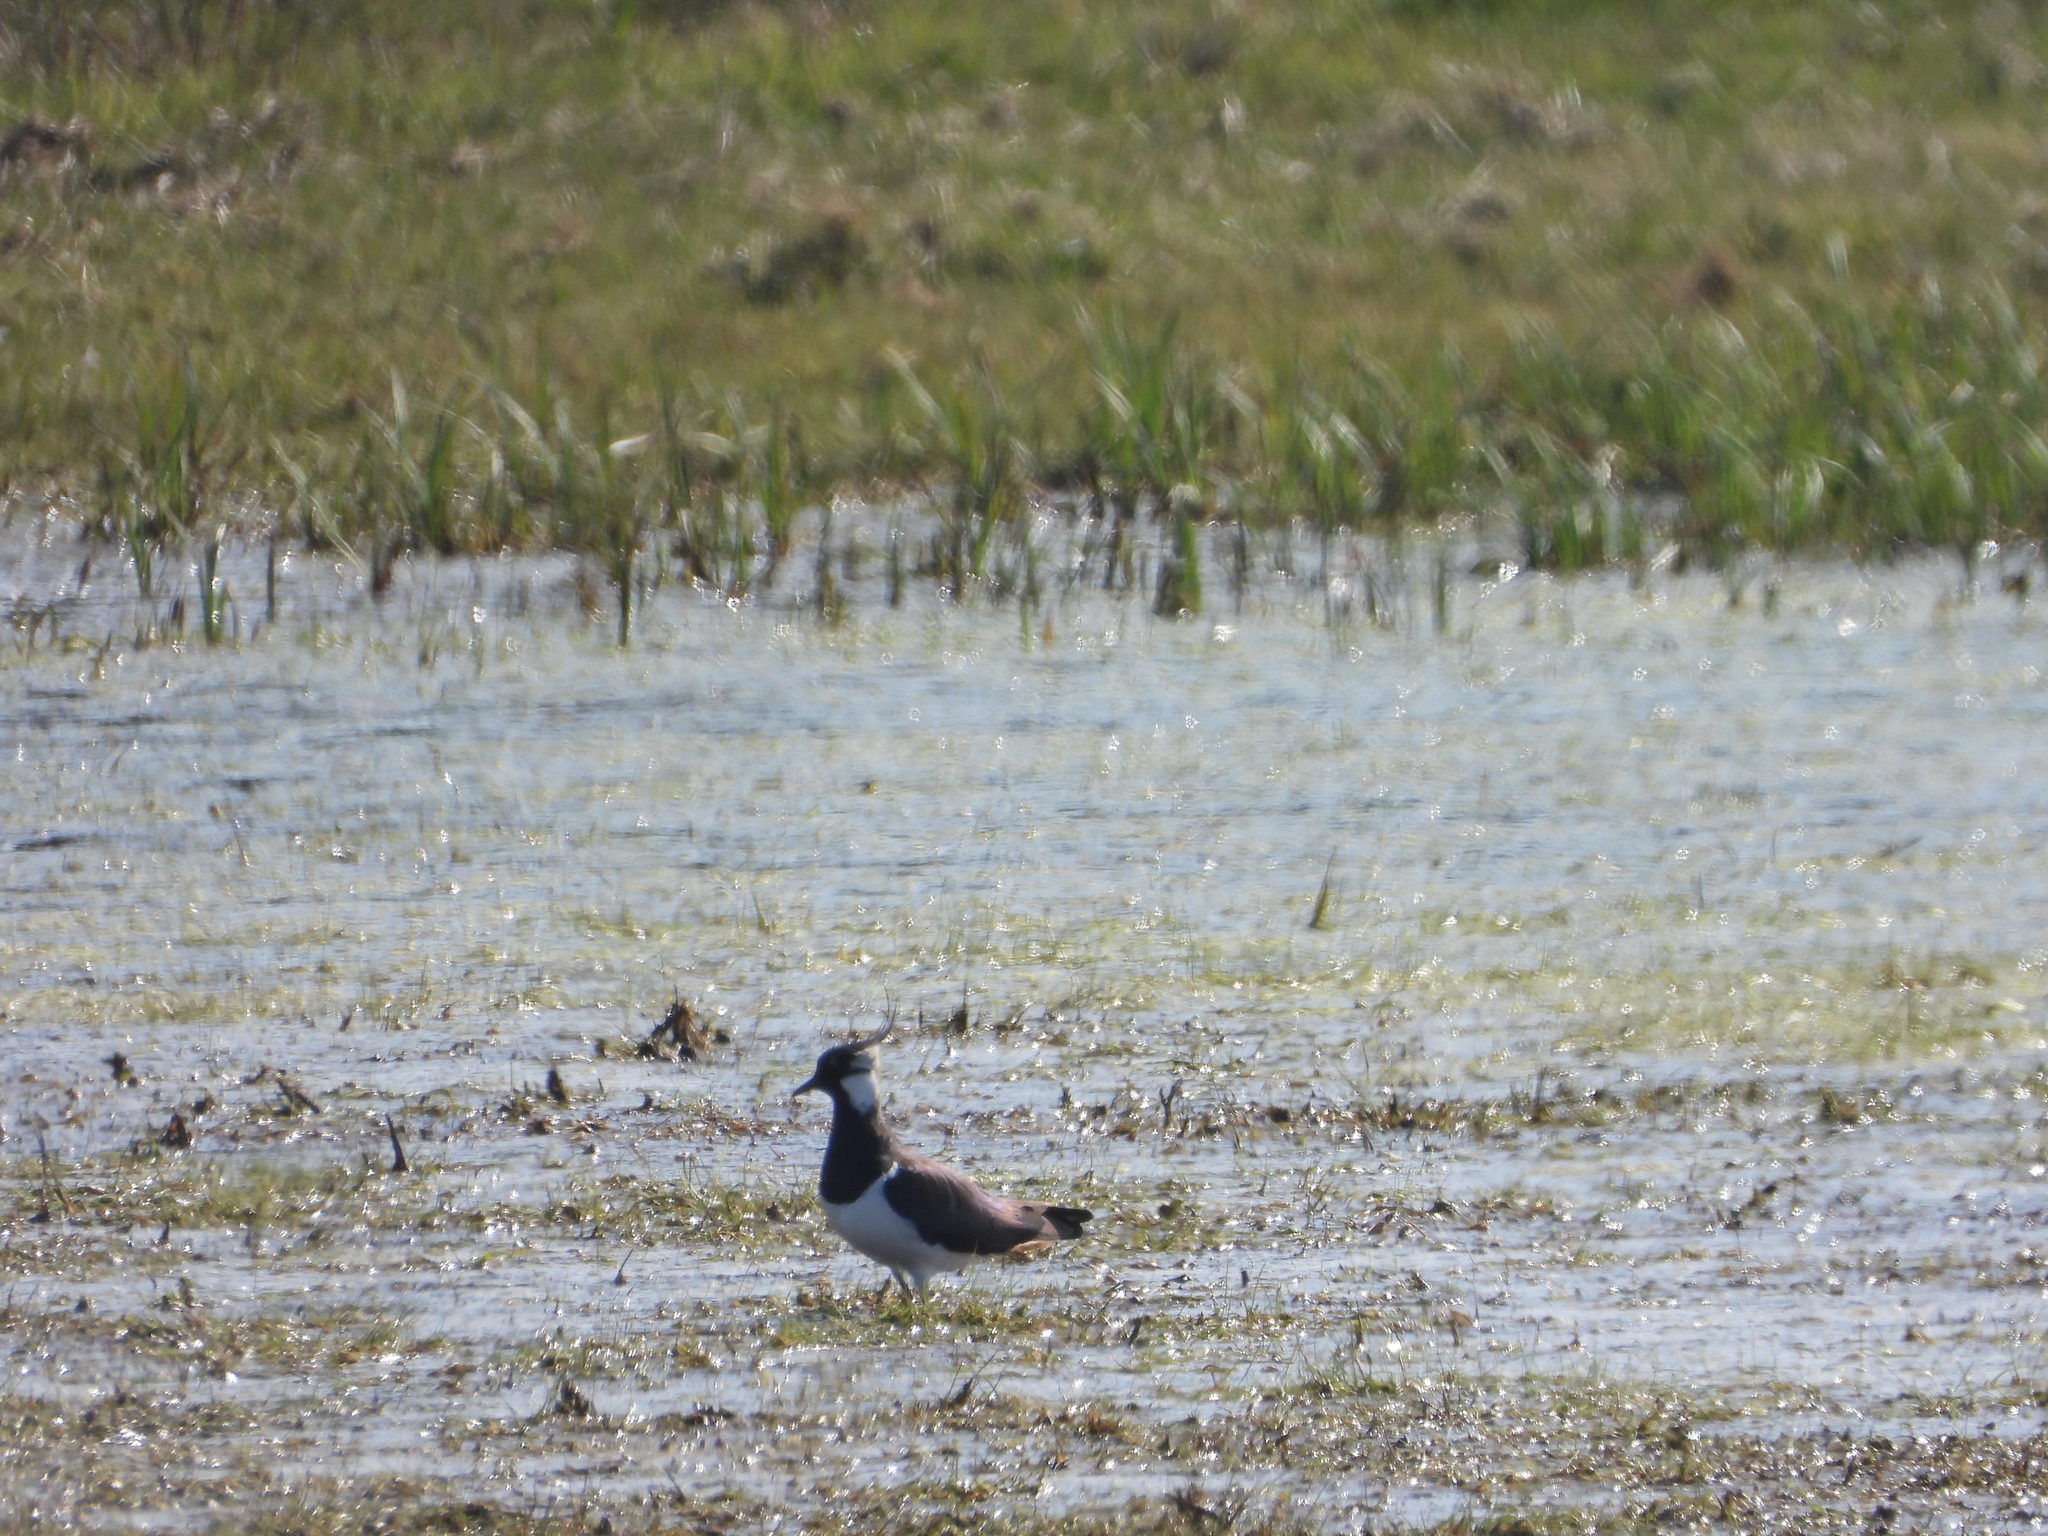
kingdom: Animalia
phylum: Chordata
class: Aves
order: Charadriiformes
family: Charadriidae
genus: Vanellus
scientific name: Vanellus vanellus
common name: Northern lapwing
